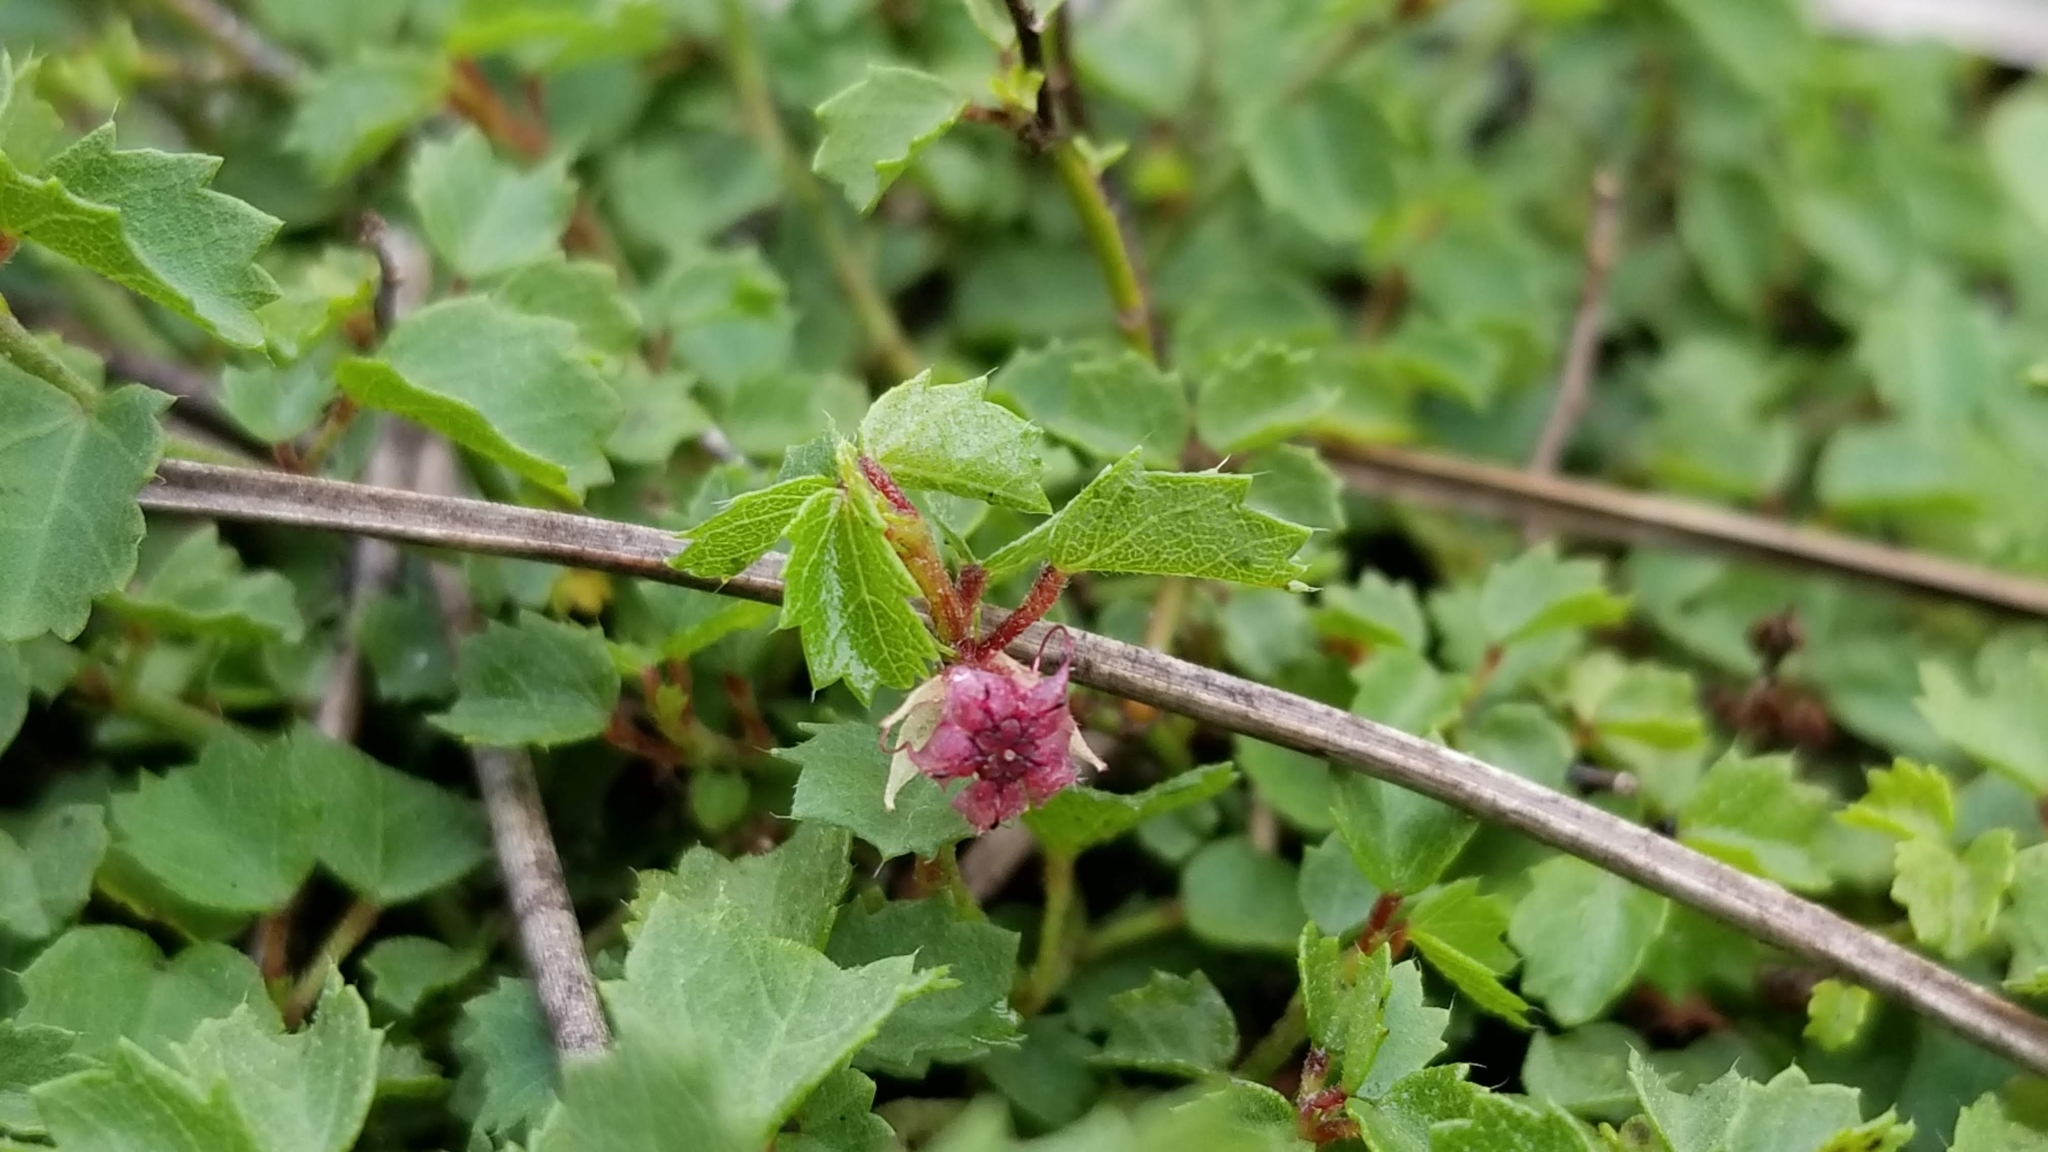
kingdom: Plantae
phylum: Tracheophyta
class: Magnoliopsida
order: Malvales
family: Malvaceae
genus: Ayenia
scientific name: Ayenia euphrasiifolia
